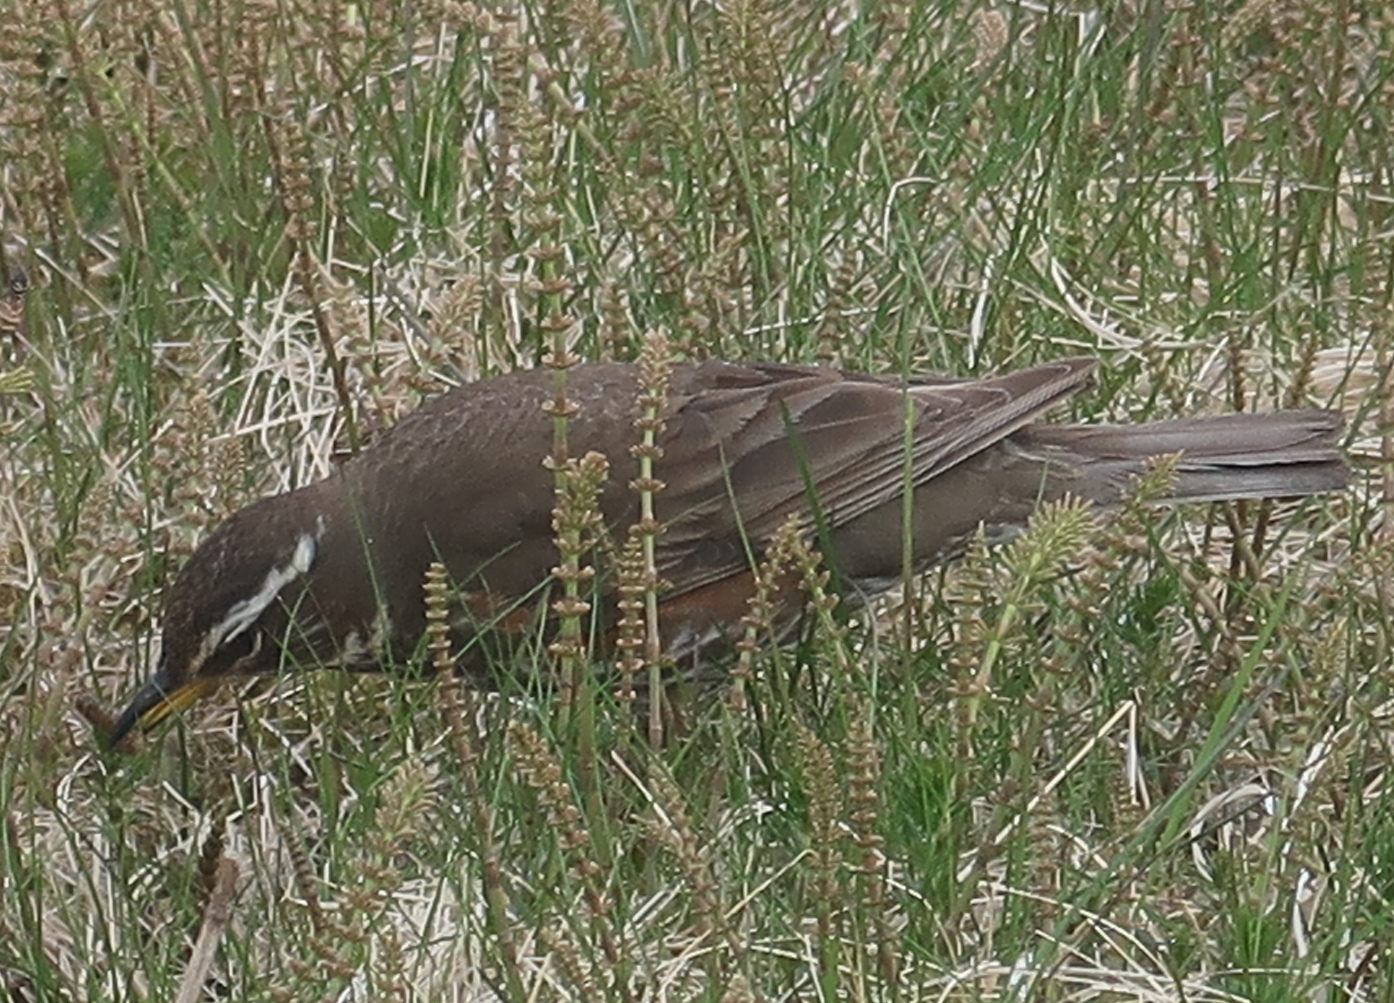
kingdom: Animalia
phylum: Chordata
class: Aves
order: Passeriformes
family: Turdidae
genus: Turdus
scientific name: Turdus iliacus
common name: Redwing
